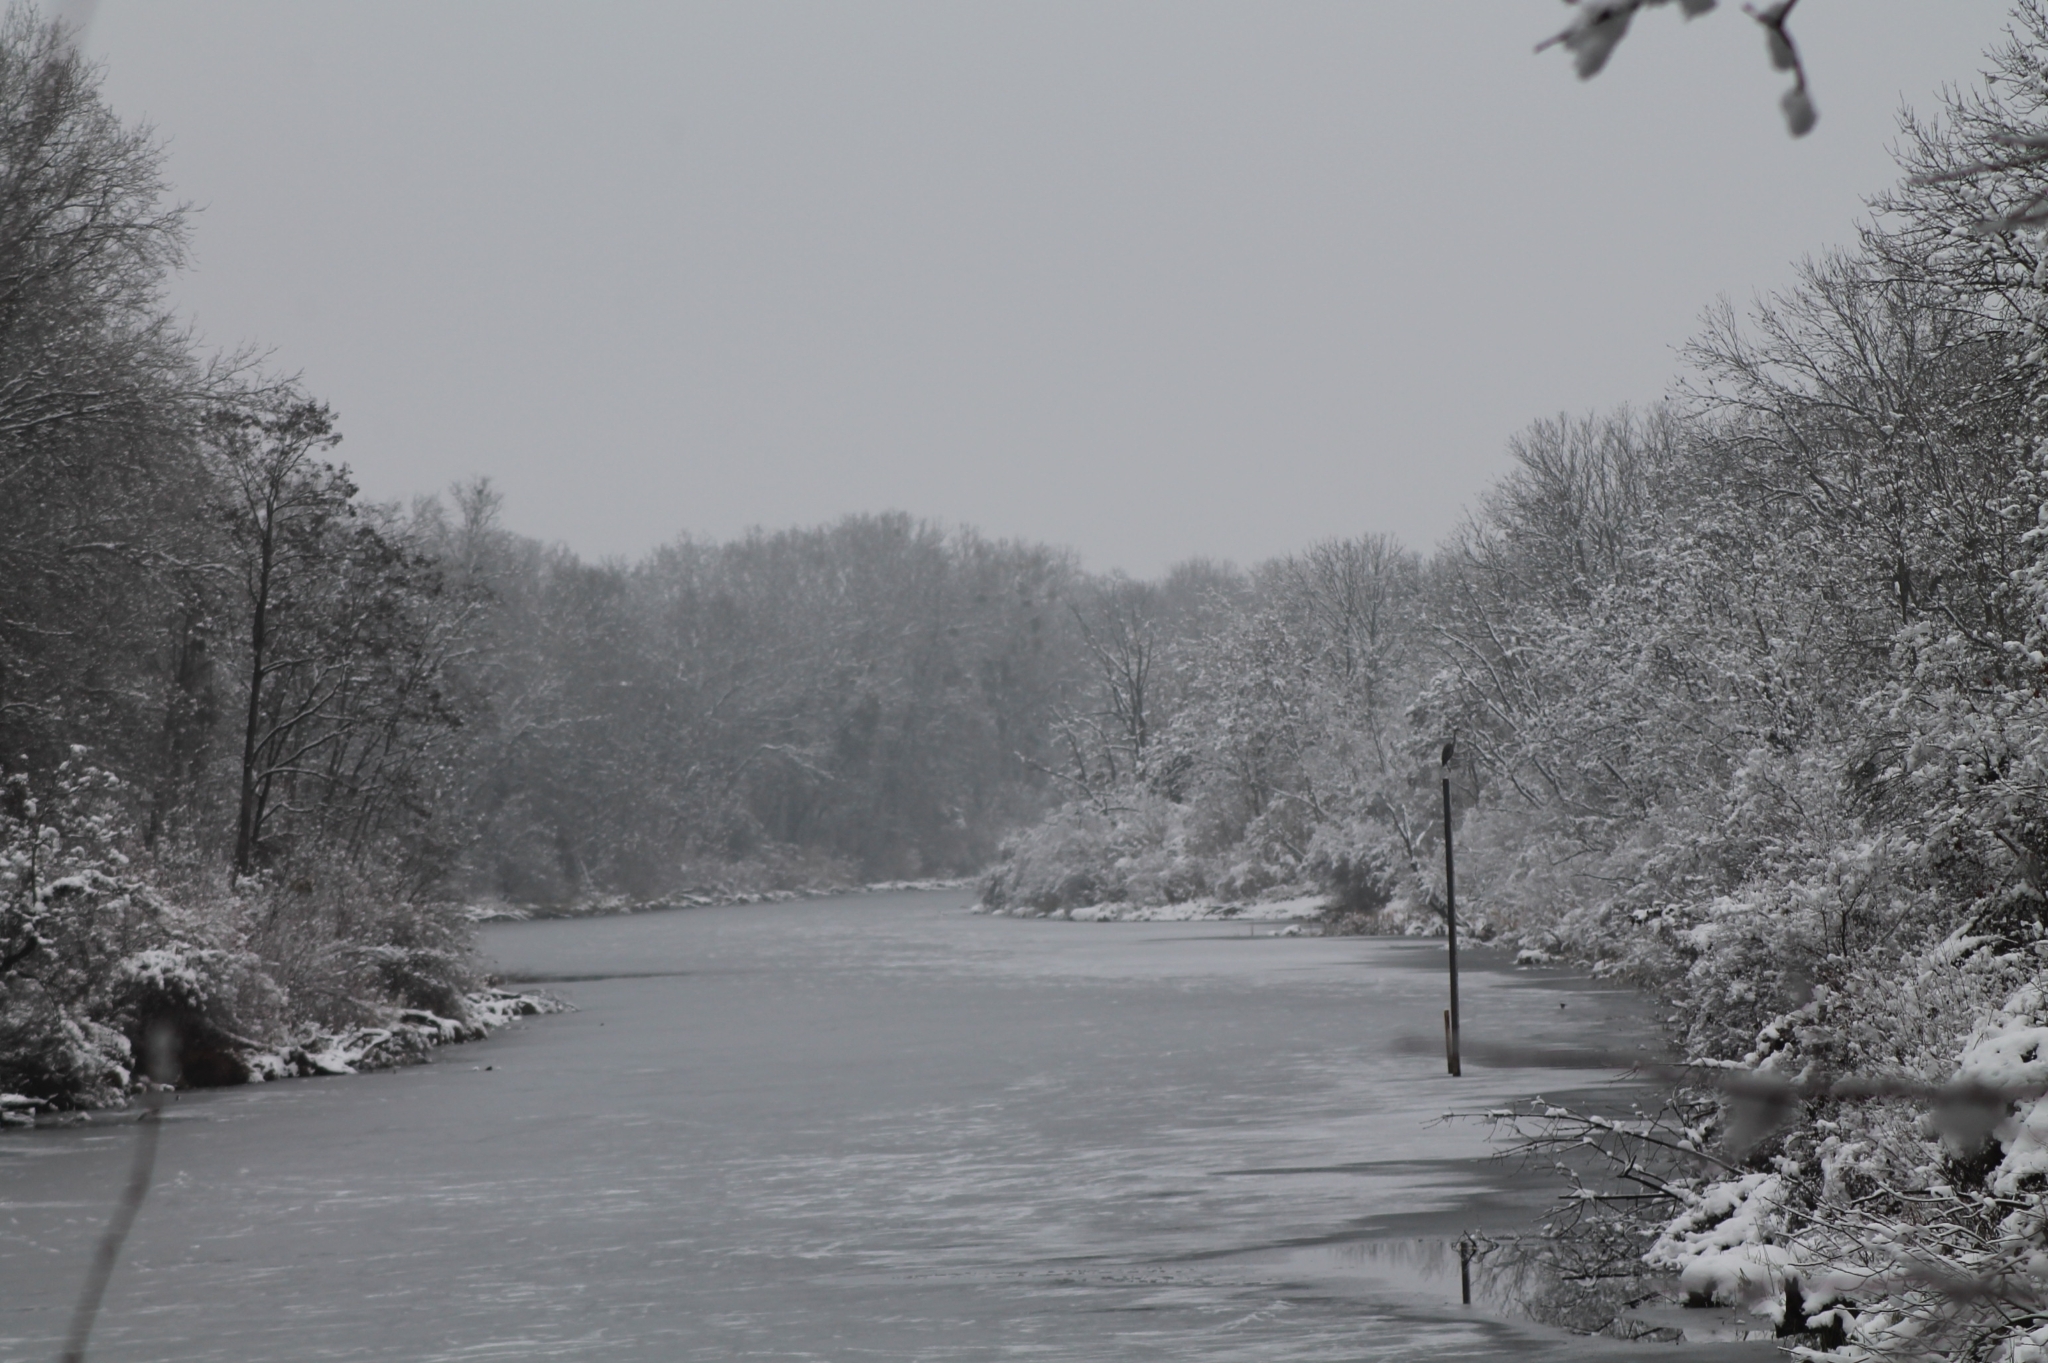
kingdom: Animalia
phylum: Chordata
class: Aves
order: Pelecaniformes
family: Ardeidae
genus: Ardea
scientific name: Ardea cinerea
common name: Grey heron
